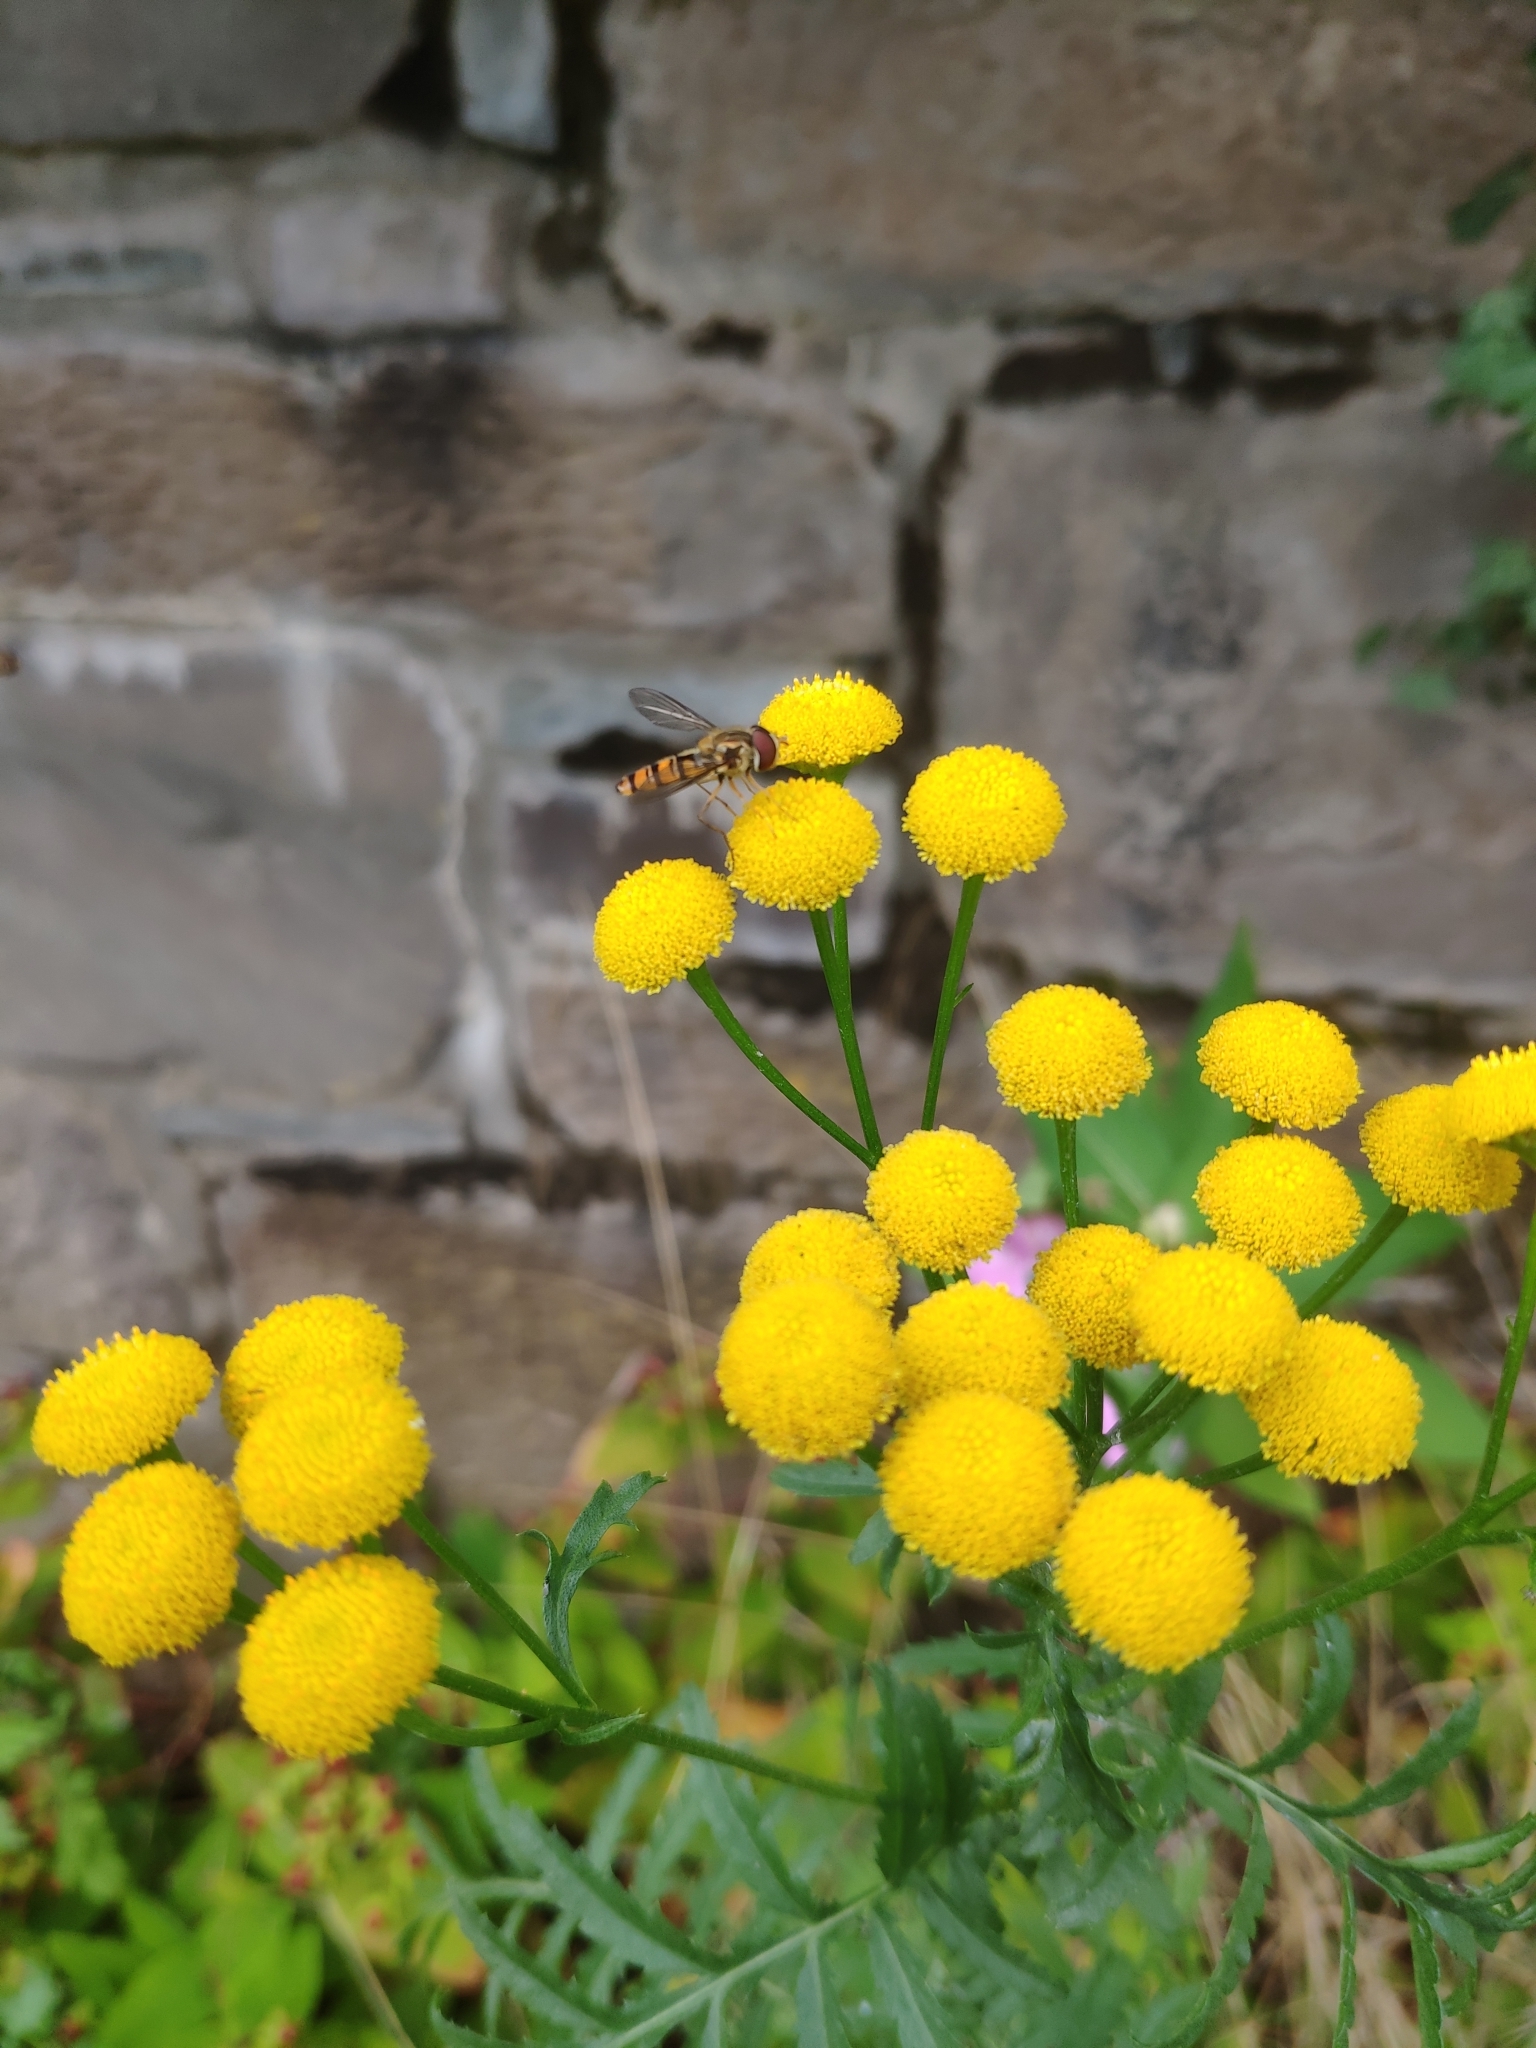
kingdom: Animalia
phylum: Arthropoda
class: Insecta
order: Diptera
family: Syrphidae
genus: Episyrphus
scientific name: Episyrphus balteatus
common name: Marmalade hoverfly
